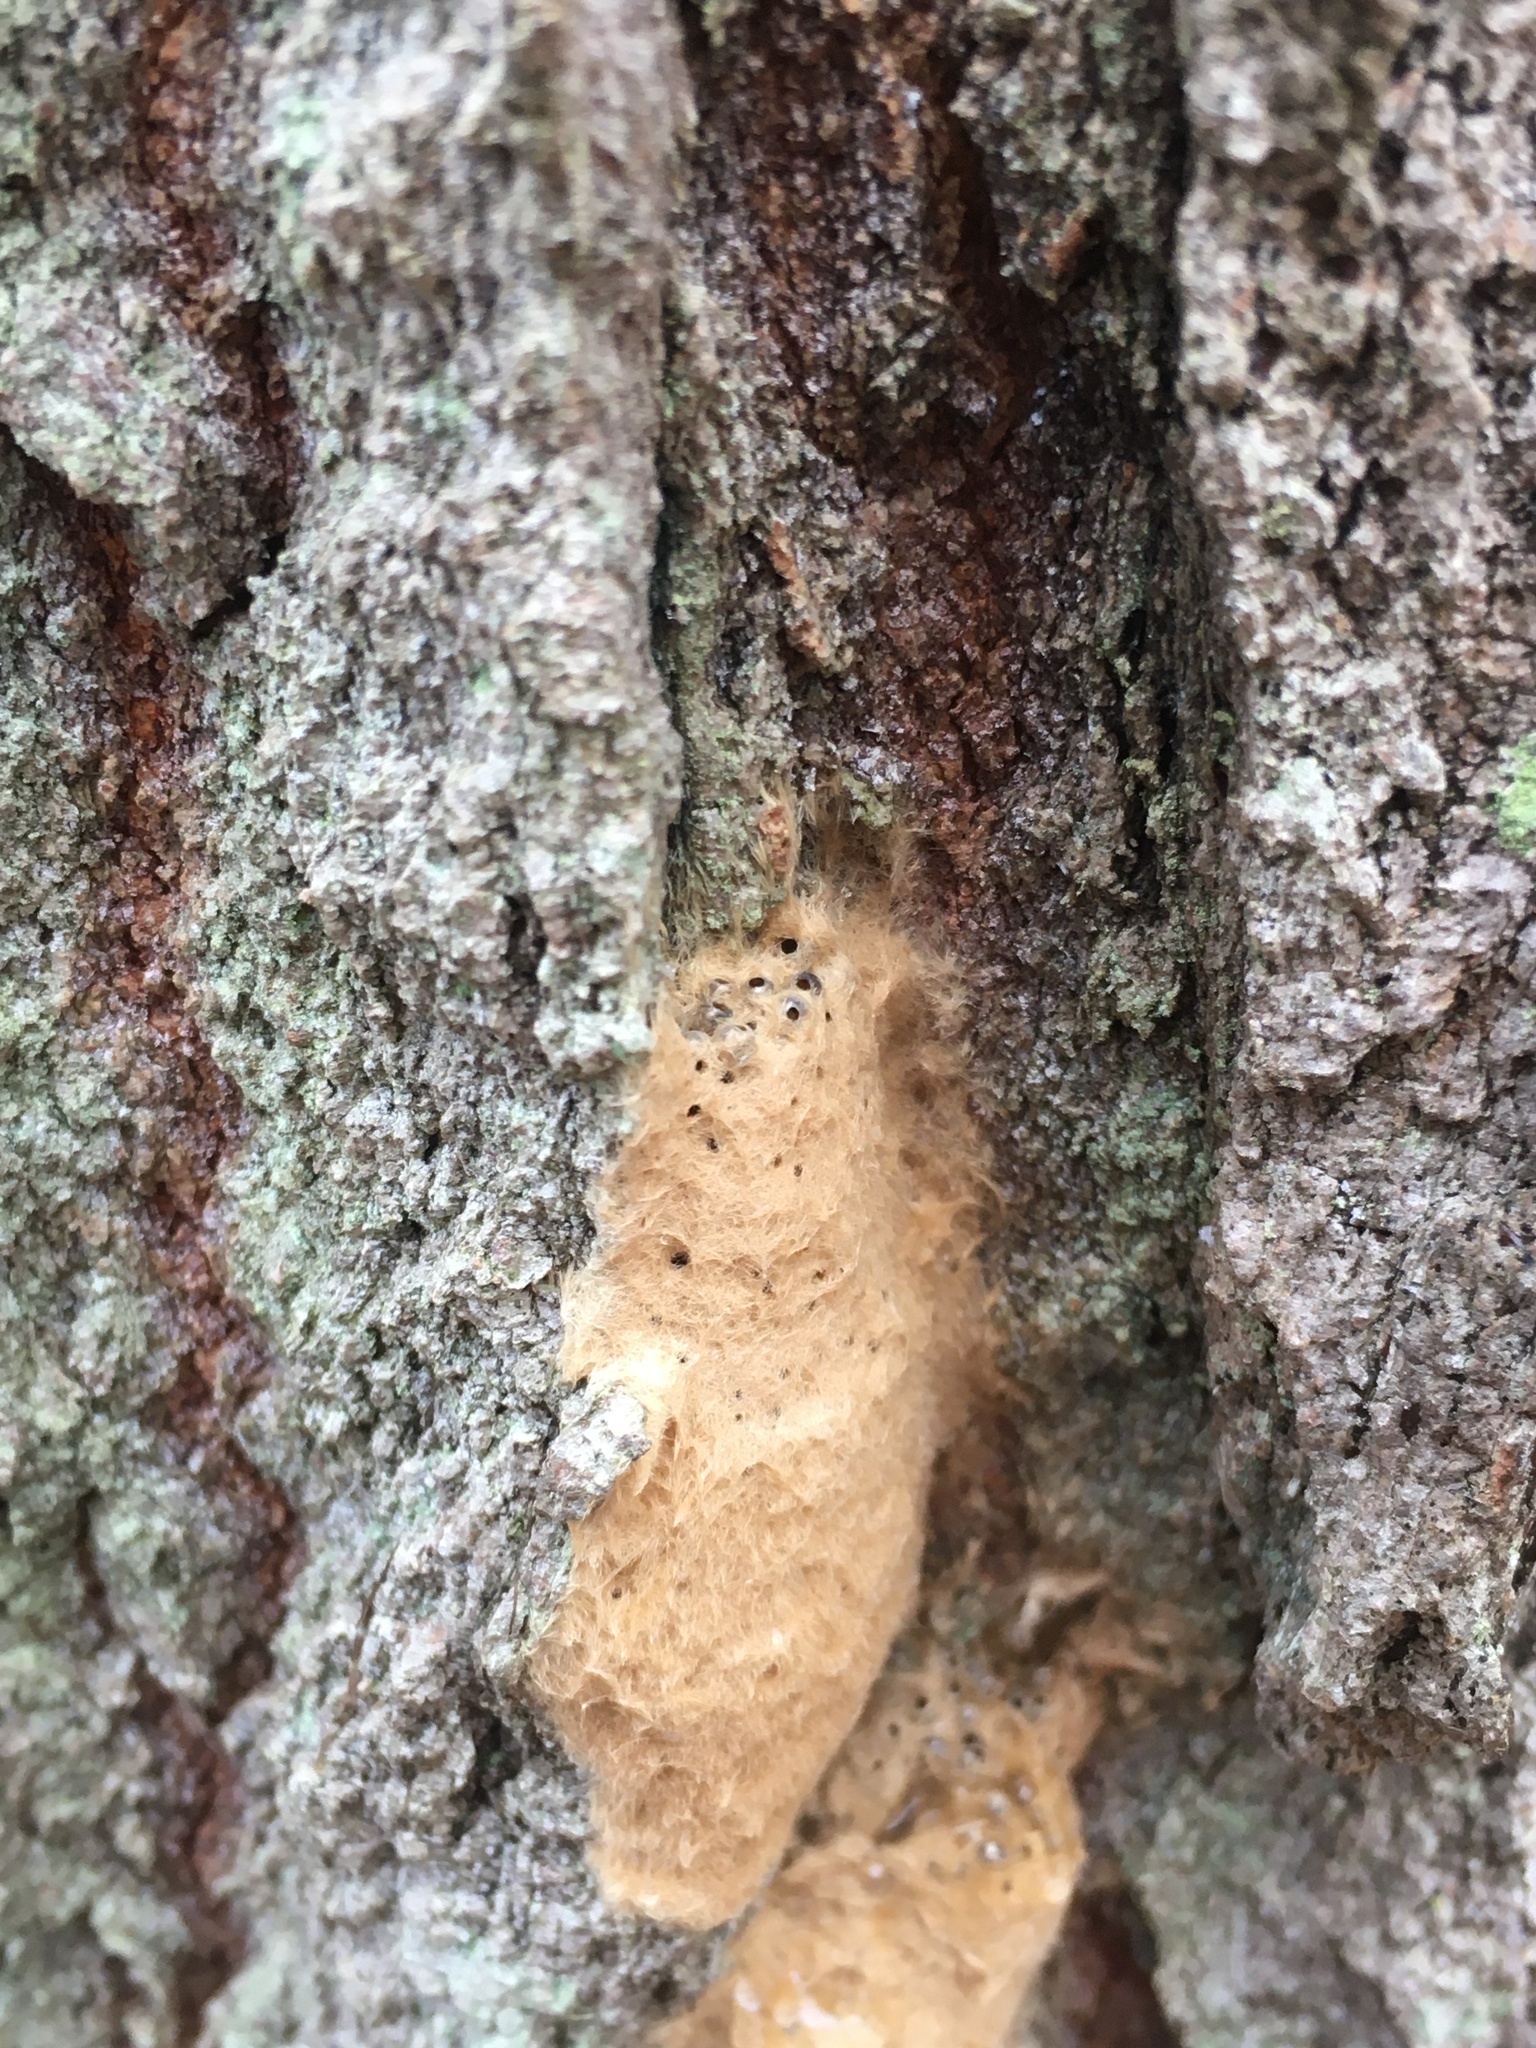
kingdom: Animalia
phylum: Arthropoda
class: Insecta
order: Hymenoptera
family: Encyrtidae
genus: Ooencyrtus
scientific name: Ooencyrtus kuvanae
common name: Wasp
